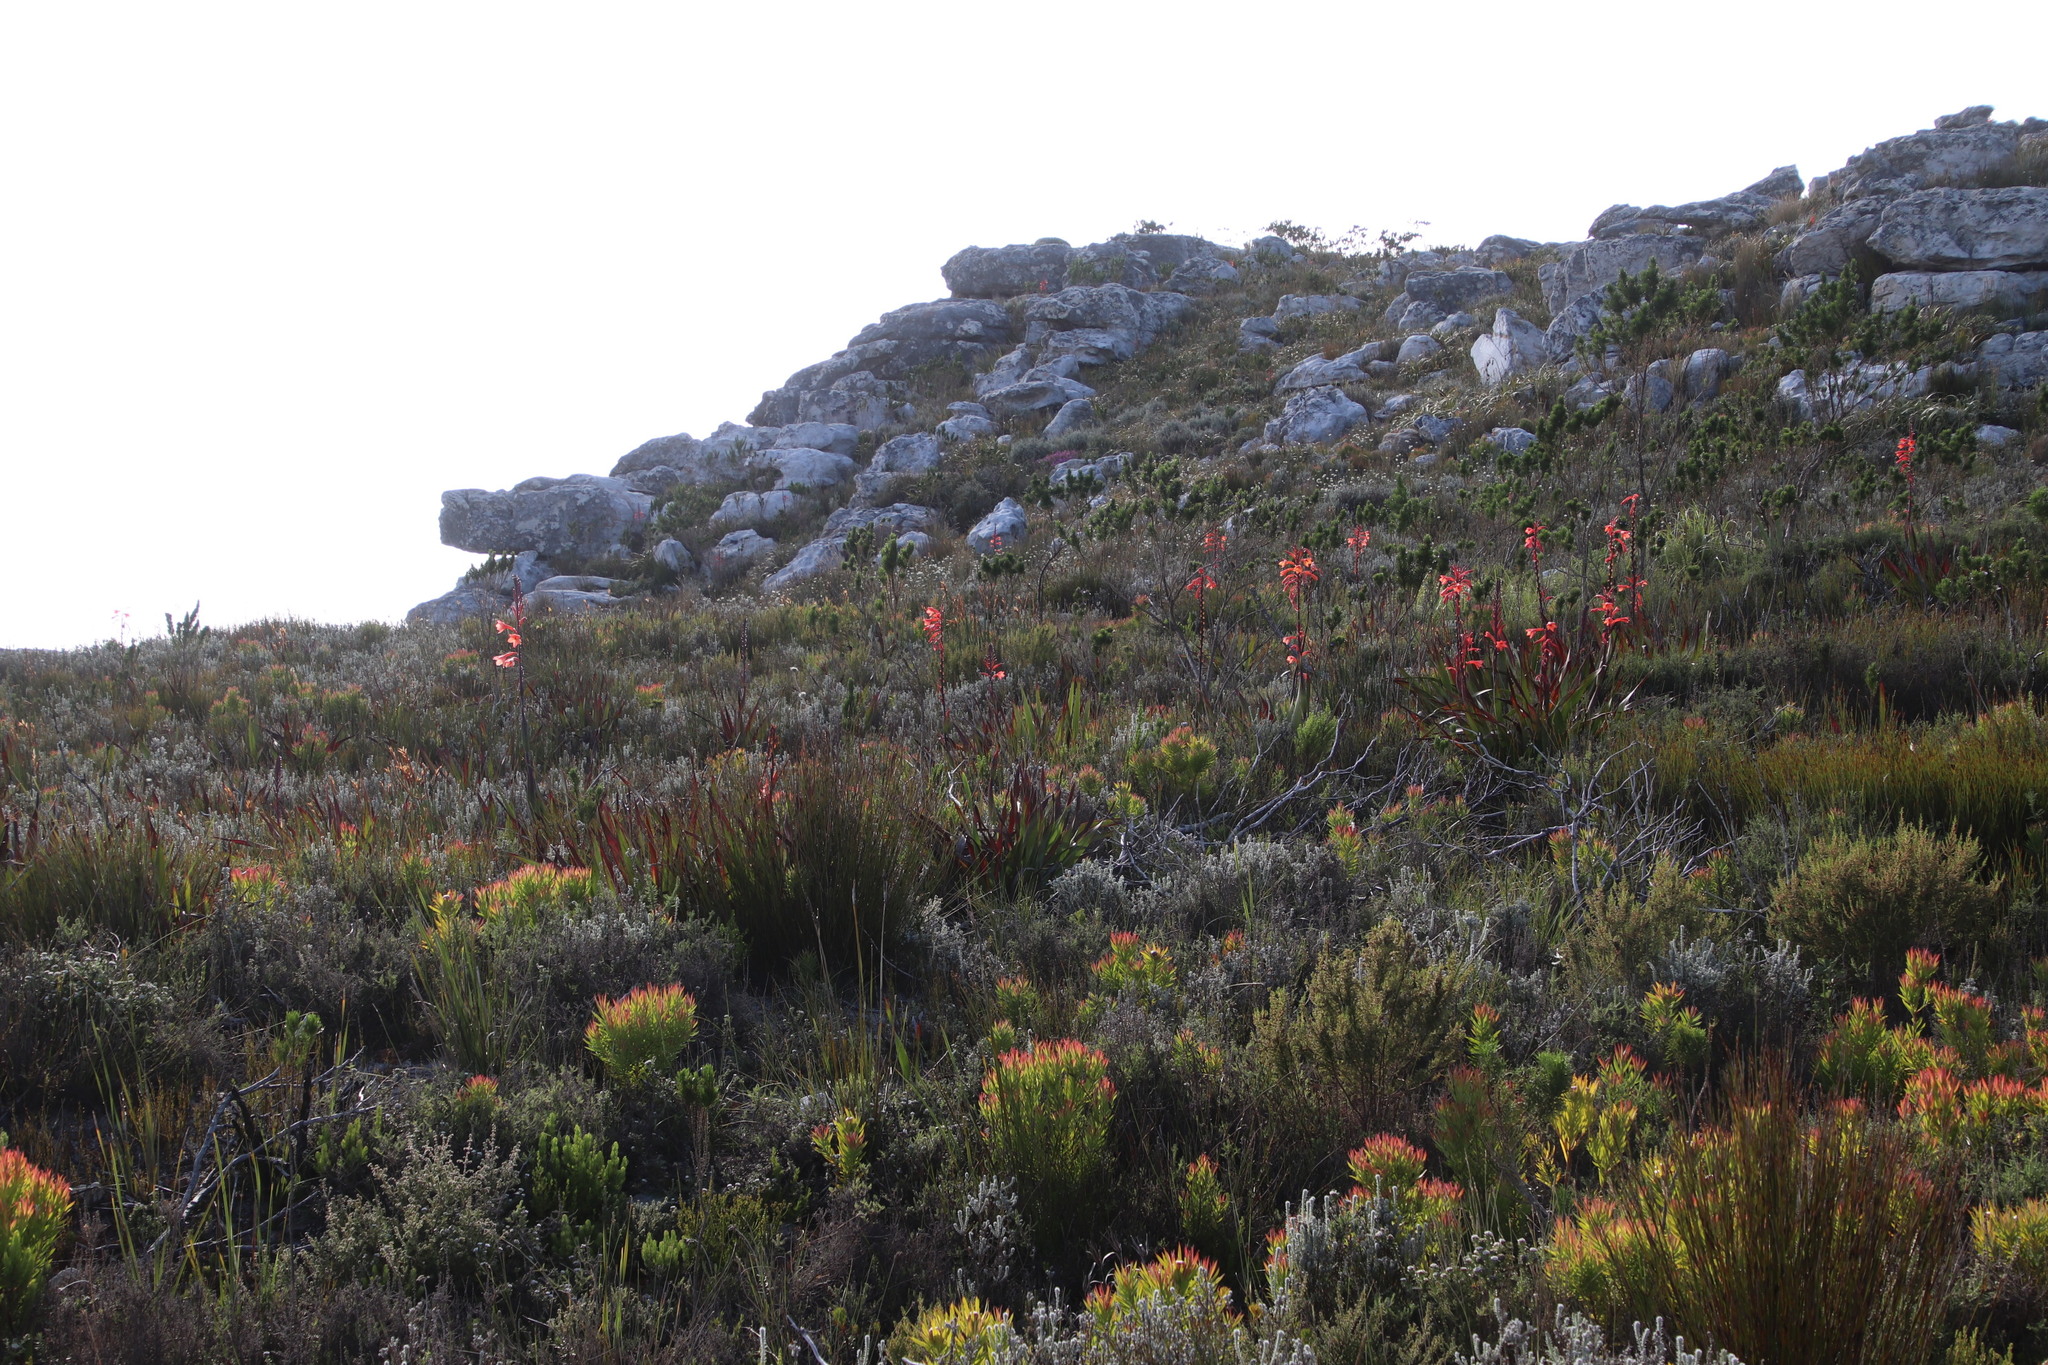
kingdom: Plantae
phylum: Tracheophyta
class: Liliopsida
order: Asparagales
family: Iridaceae
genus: Watsonia
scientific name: Watsonia tabularis
